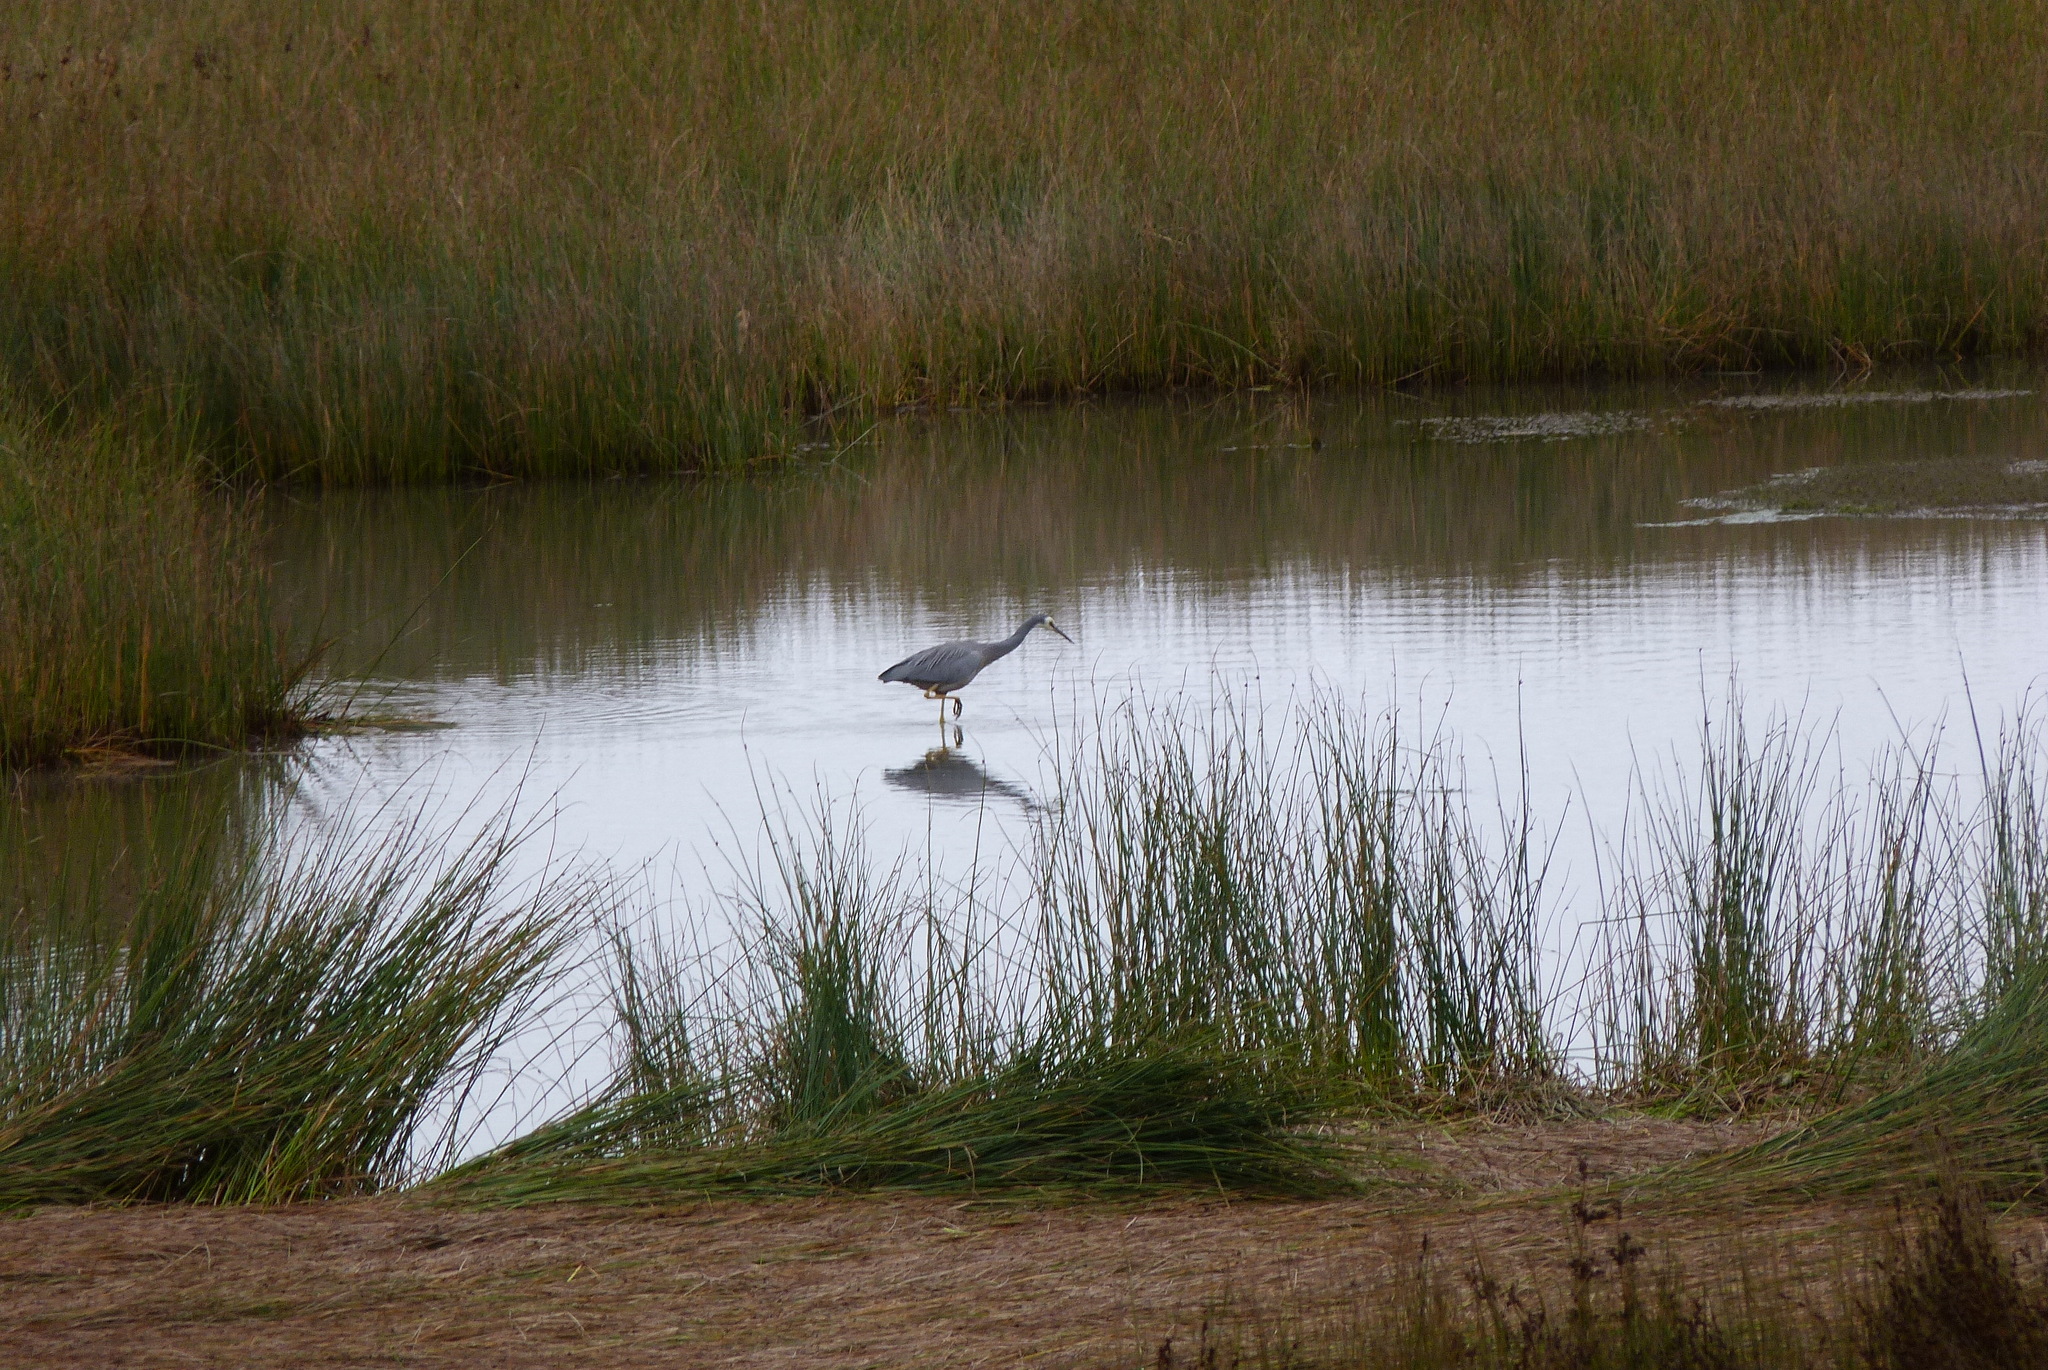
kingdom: Animalia
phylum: Chordata
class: Aves
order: Pelecaniformes
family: Ardeidae
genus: Egretta
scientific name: Egretta novaehollandiae
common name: White-faced heron
